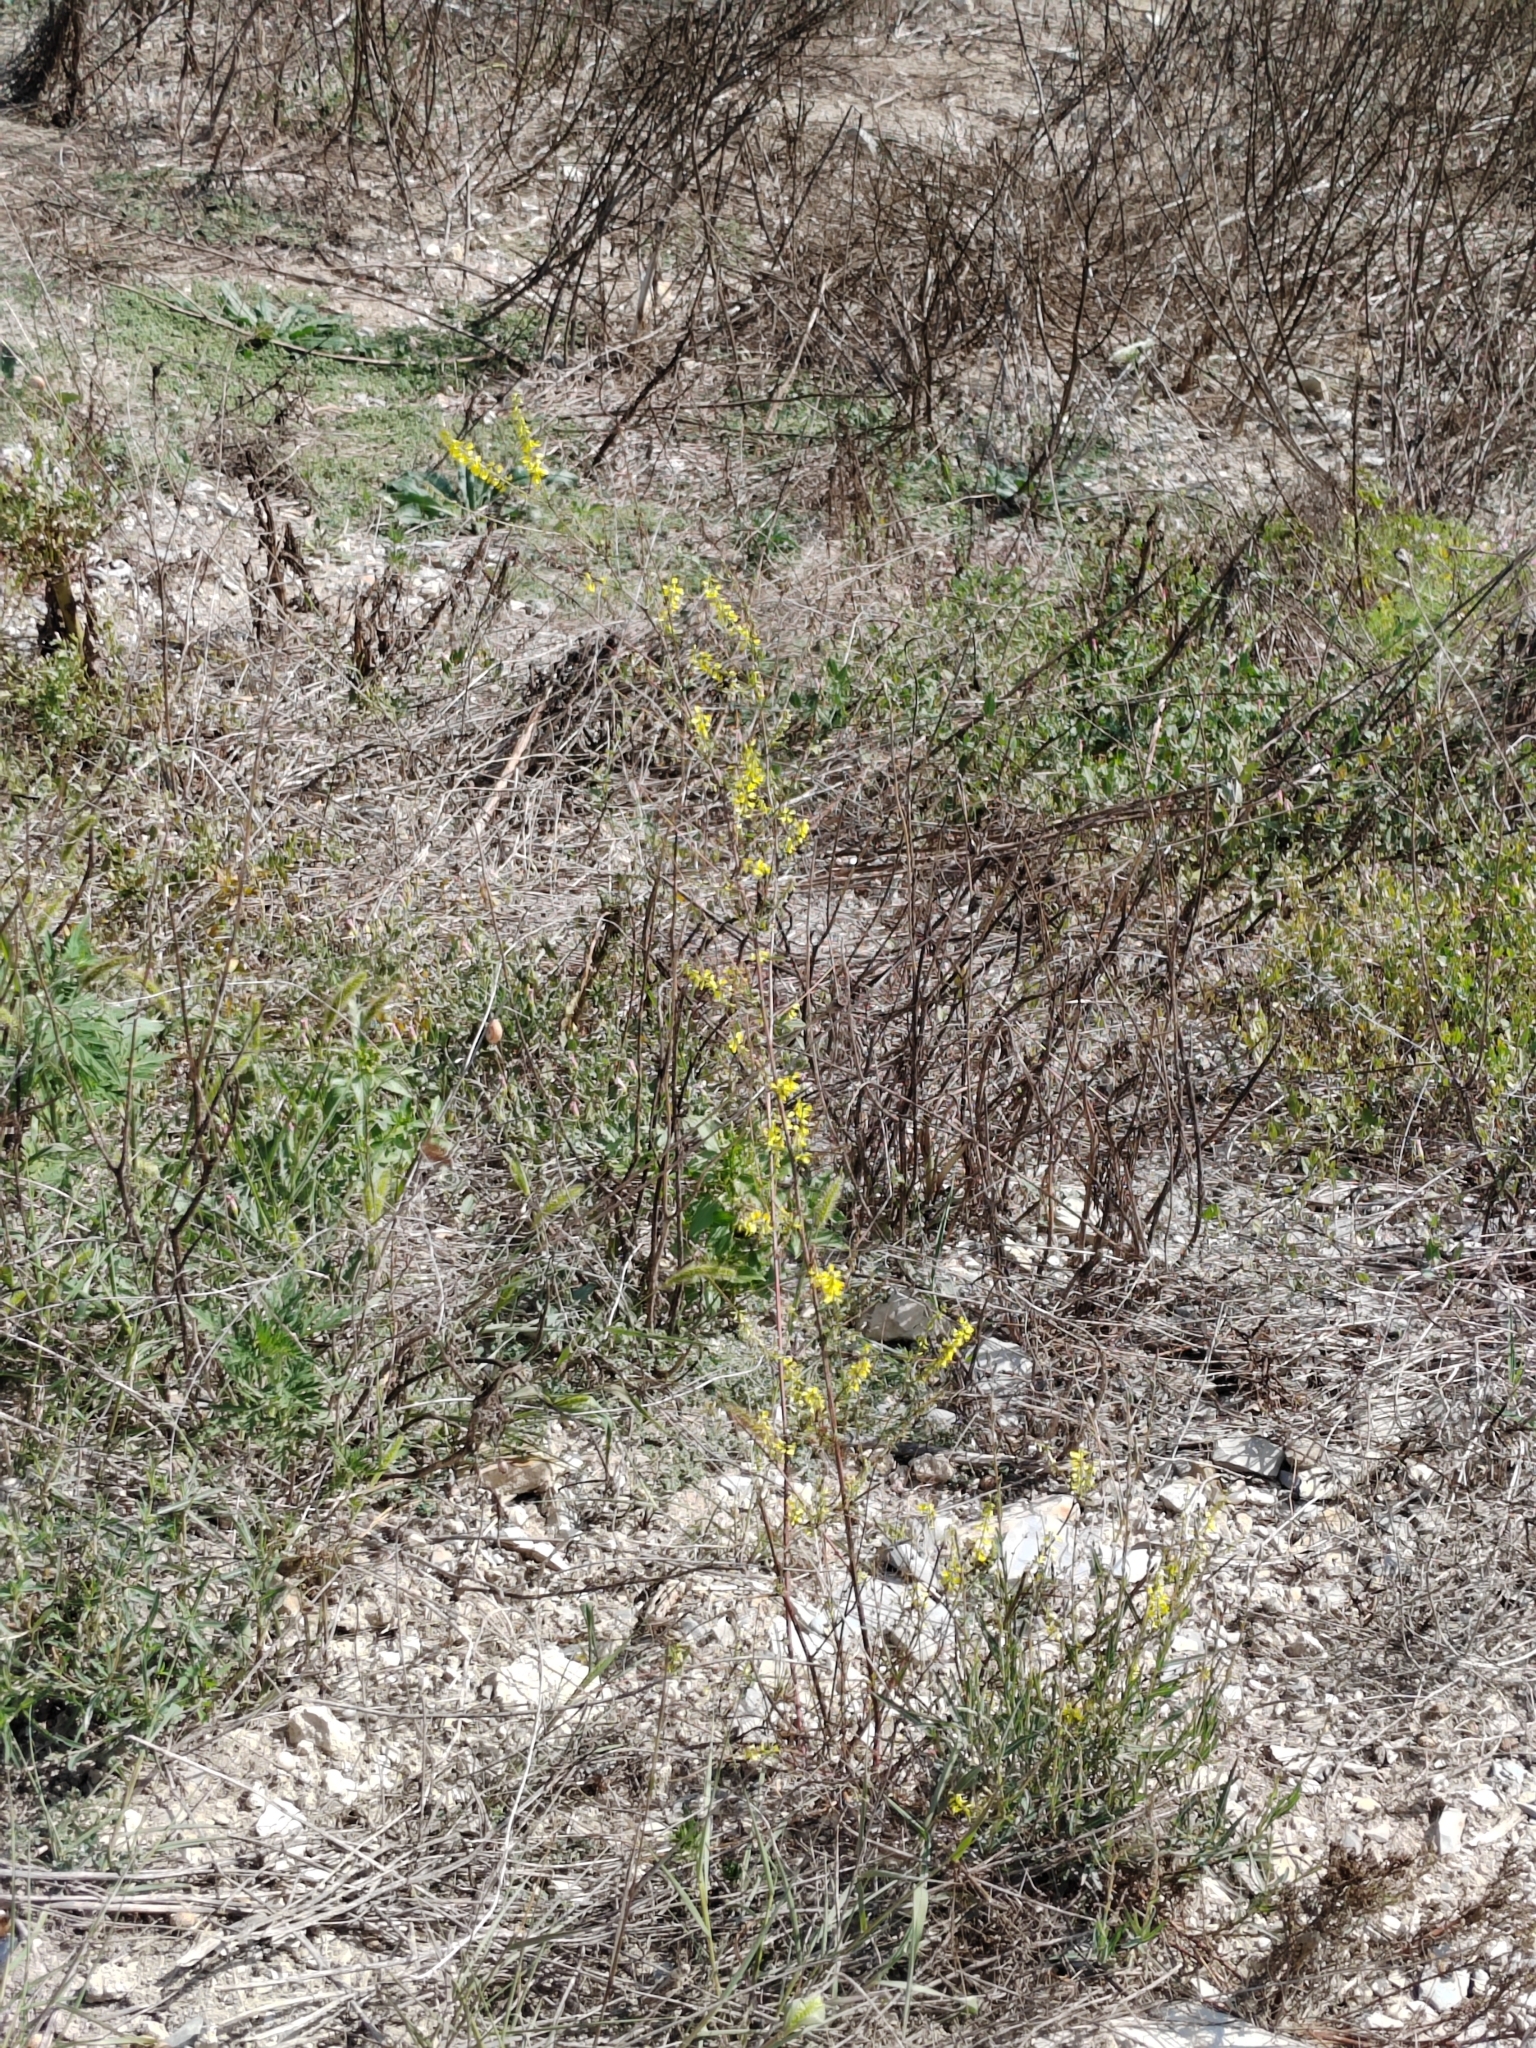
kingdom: Plantae
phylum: Tracheophyta
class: Magnoliopsida
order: Fabales
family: Fabaceae
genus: Melilotus
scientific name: Melilotus officinalis
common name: Sweetclover
